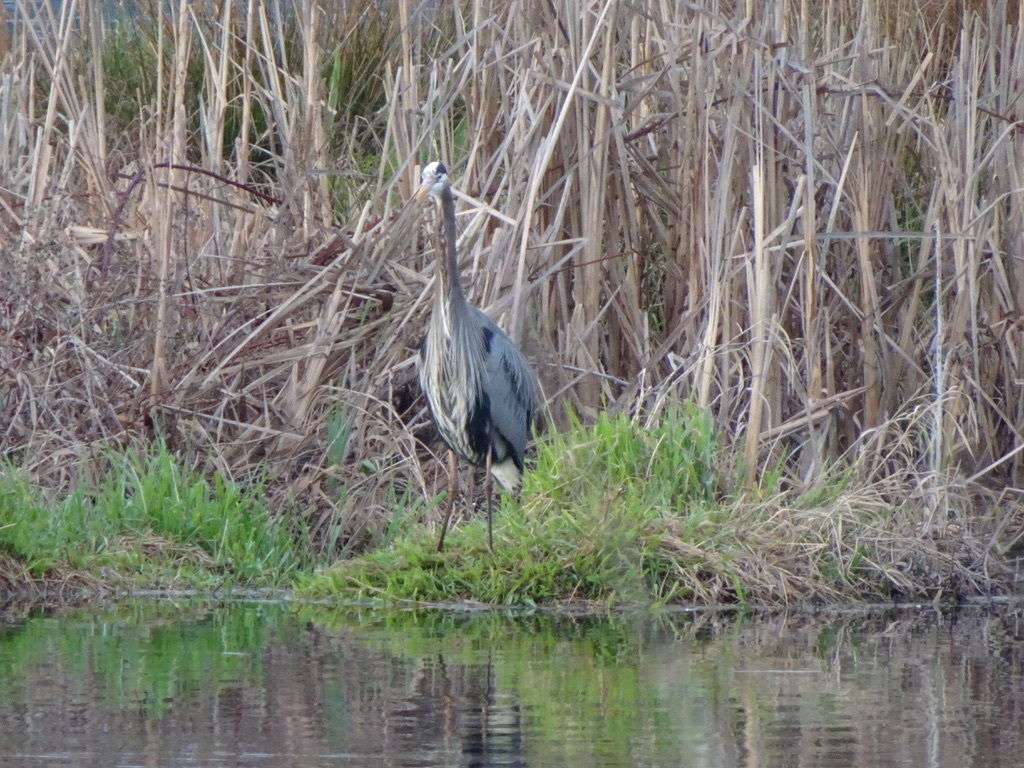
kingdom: Animalia
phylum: Chordata
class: Aves
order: Pelecaniformes
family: Ardeidae
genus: Ardea
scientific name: Ardea herodias
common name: Great blue heron
